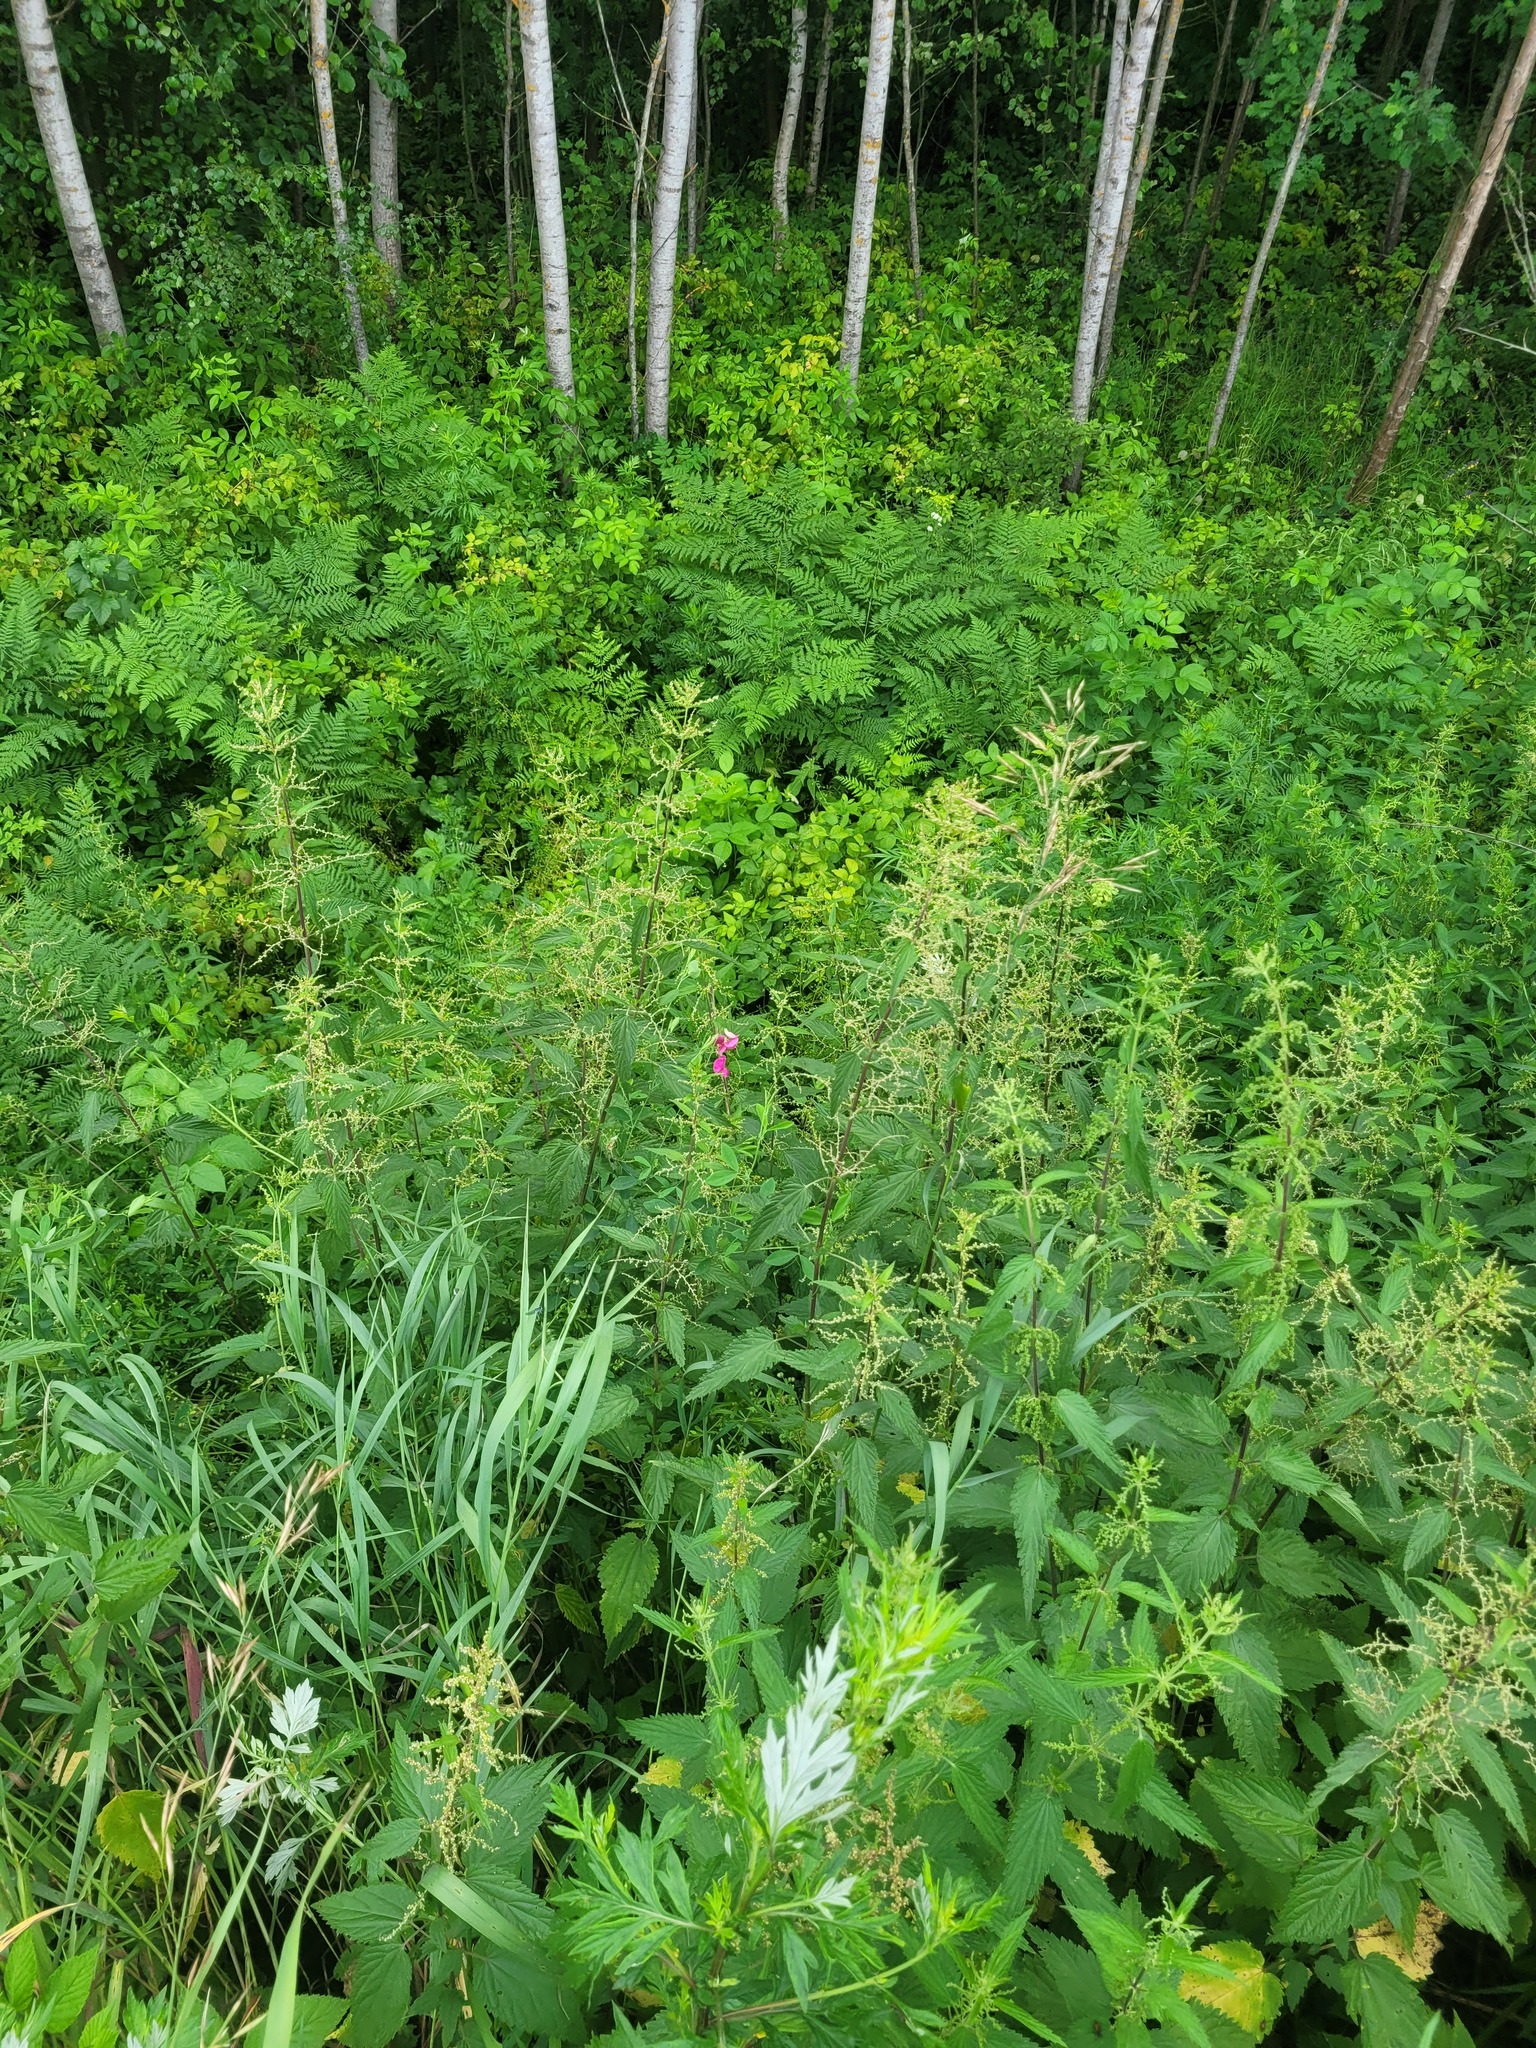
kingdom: Plantae
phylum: Tracheophyta
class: Magnoliopsida
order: Rosales
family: Urticaceae
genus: Urtica
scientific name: Urtica dioica
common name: Common nettle
